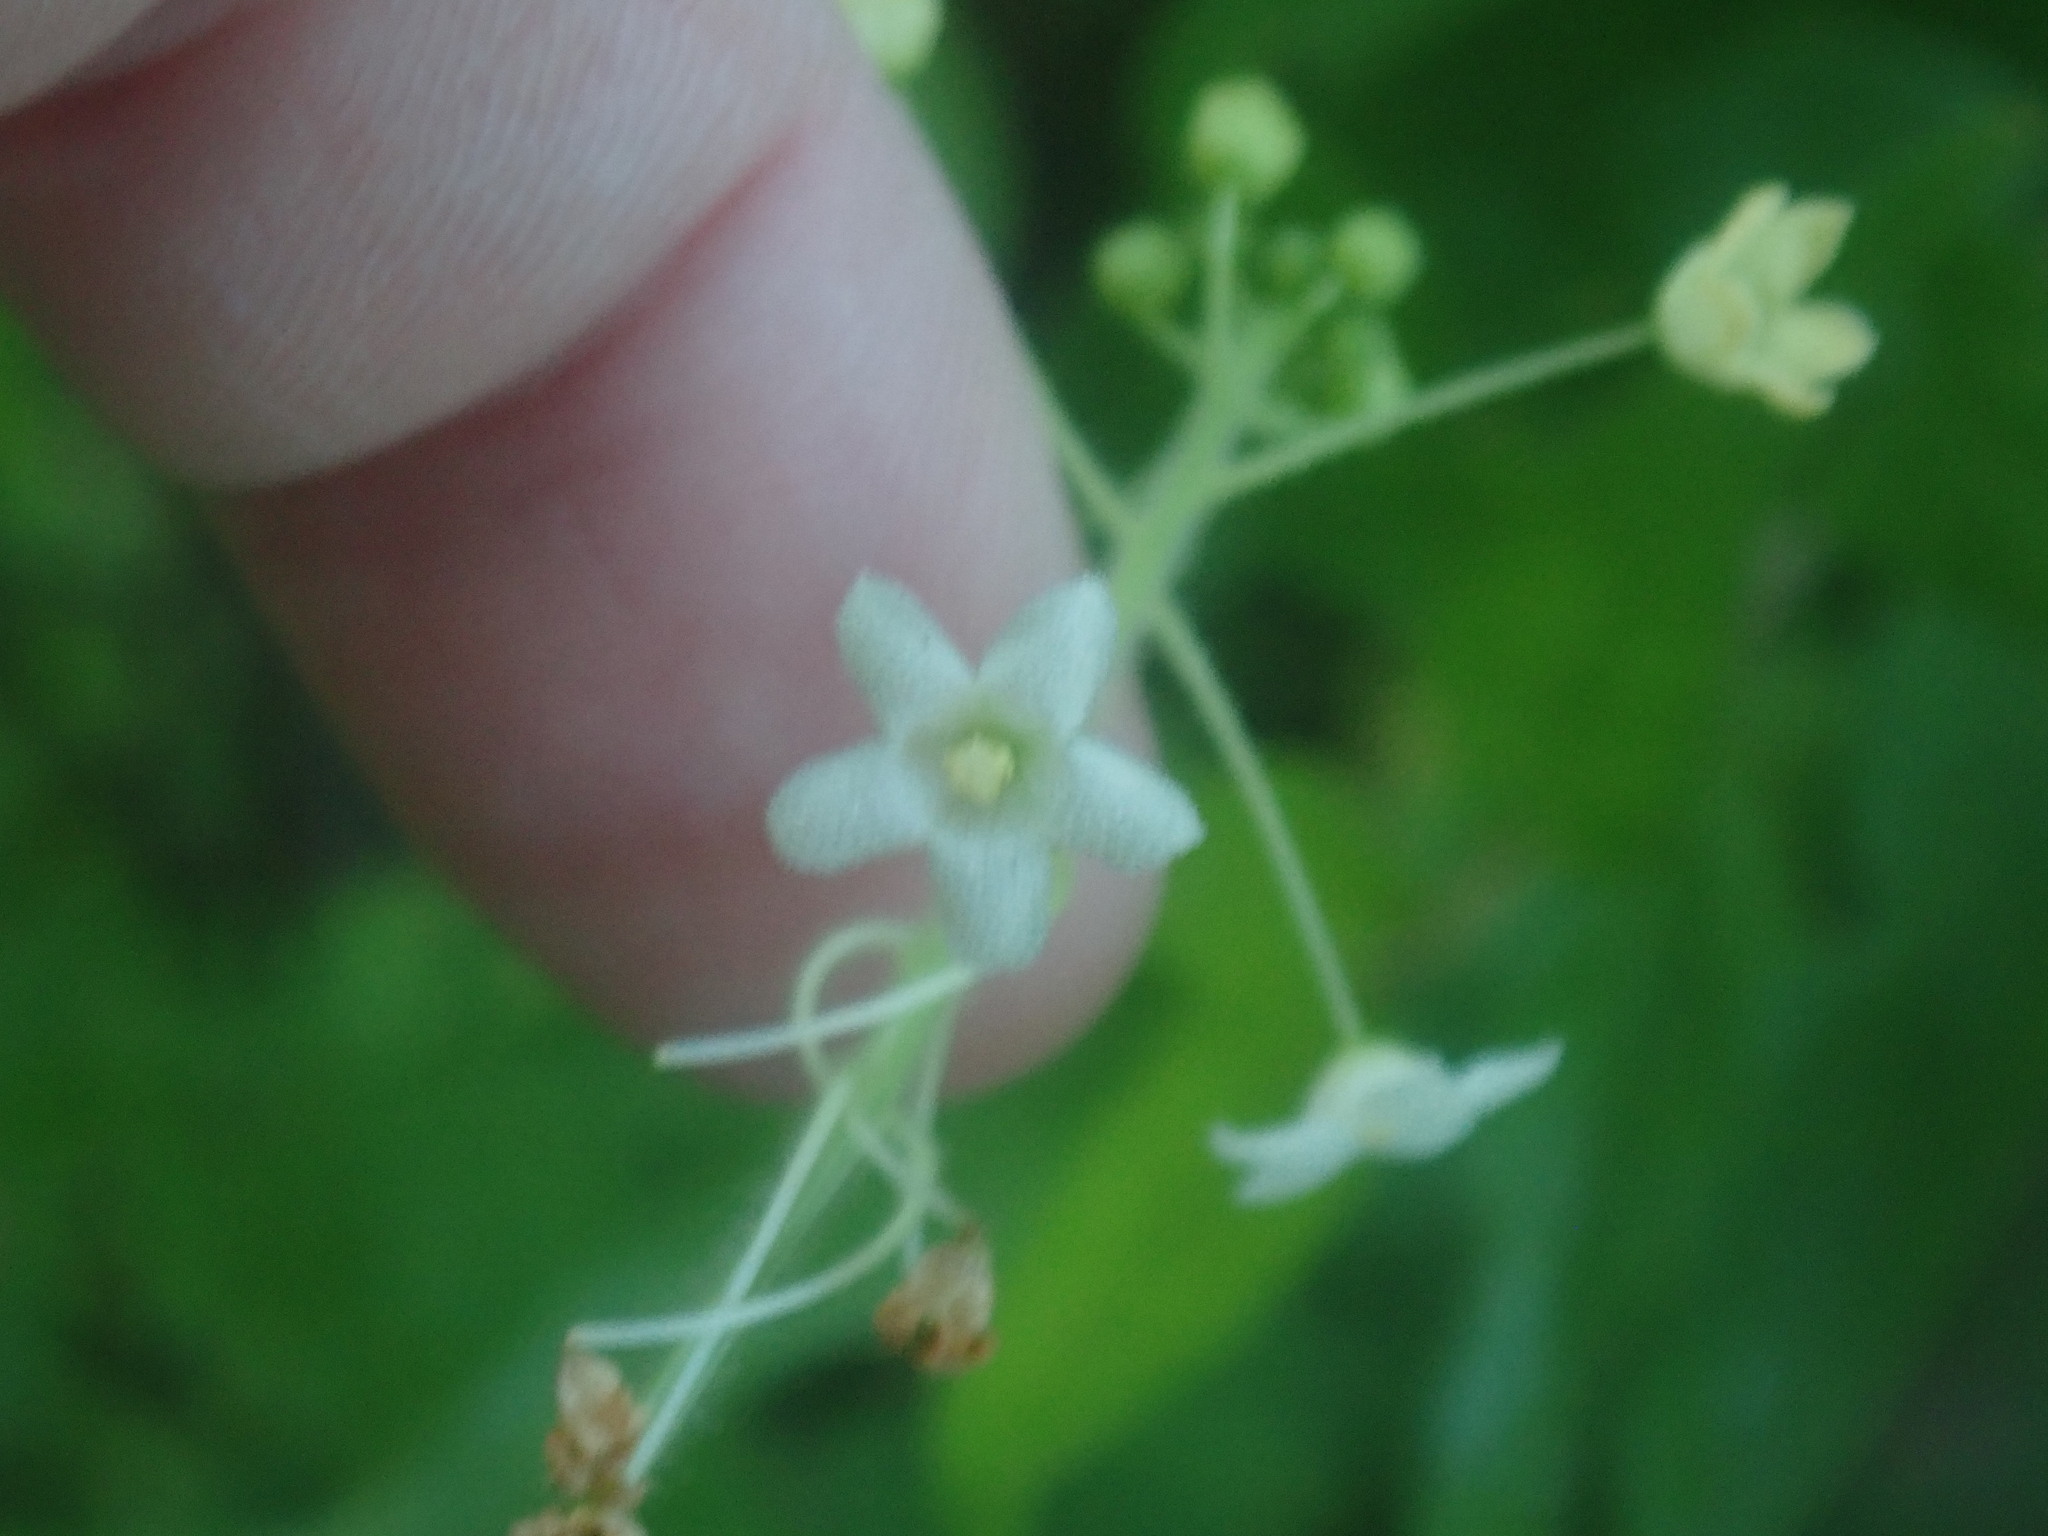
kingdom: Plantae
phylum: Tracheophyta
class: Magnoliopsida
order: Cucurbitales
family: Cucurbitaceae
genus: Echinopepon
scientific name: Echinopepon wrightii
